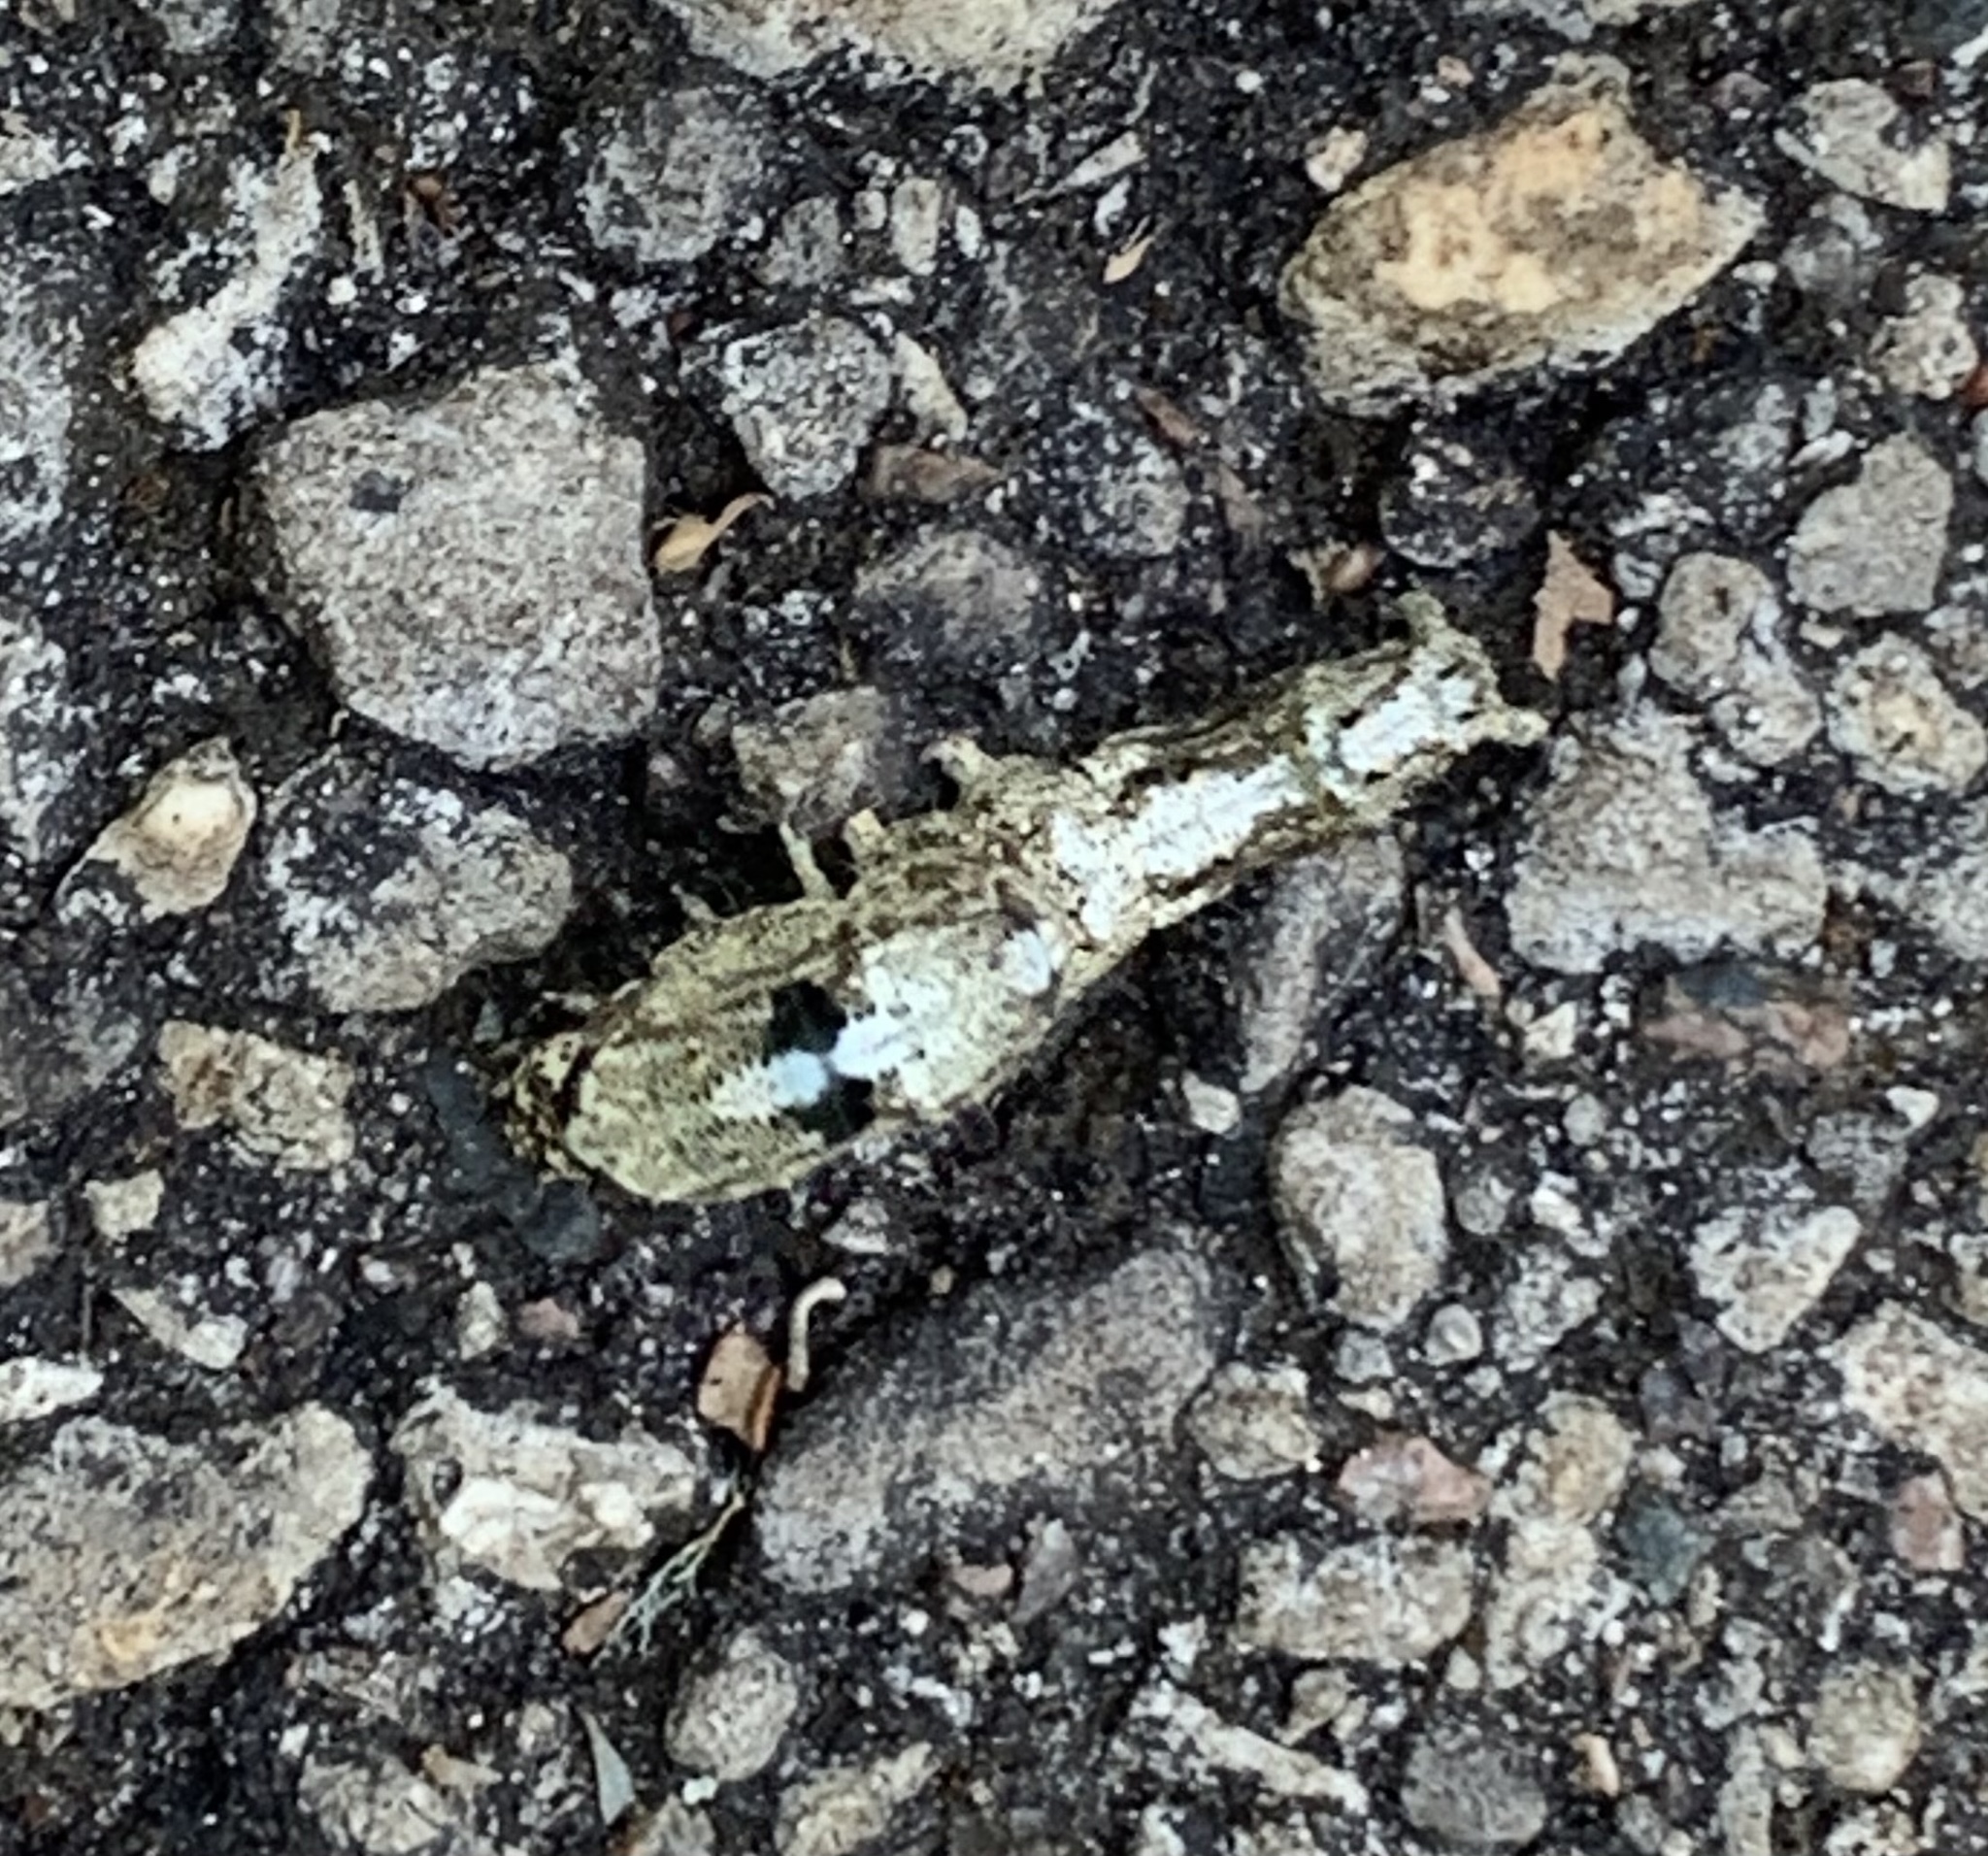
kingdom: Animalia
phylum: Arthropoda
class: Insecta
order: Lepidoptera
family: Erebidae
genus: Metria
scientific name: Metria amella
